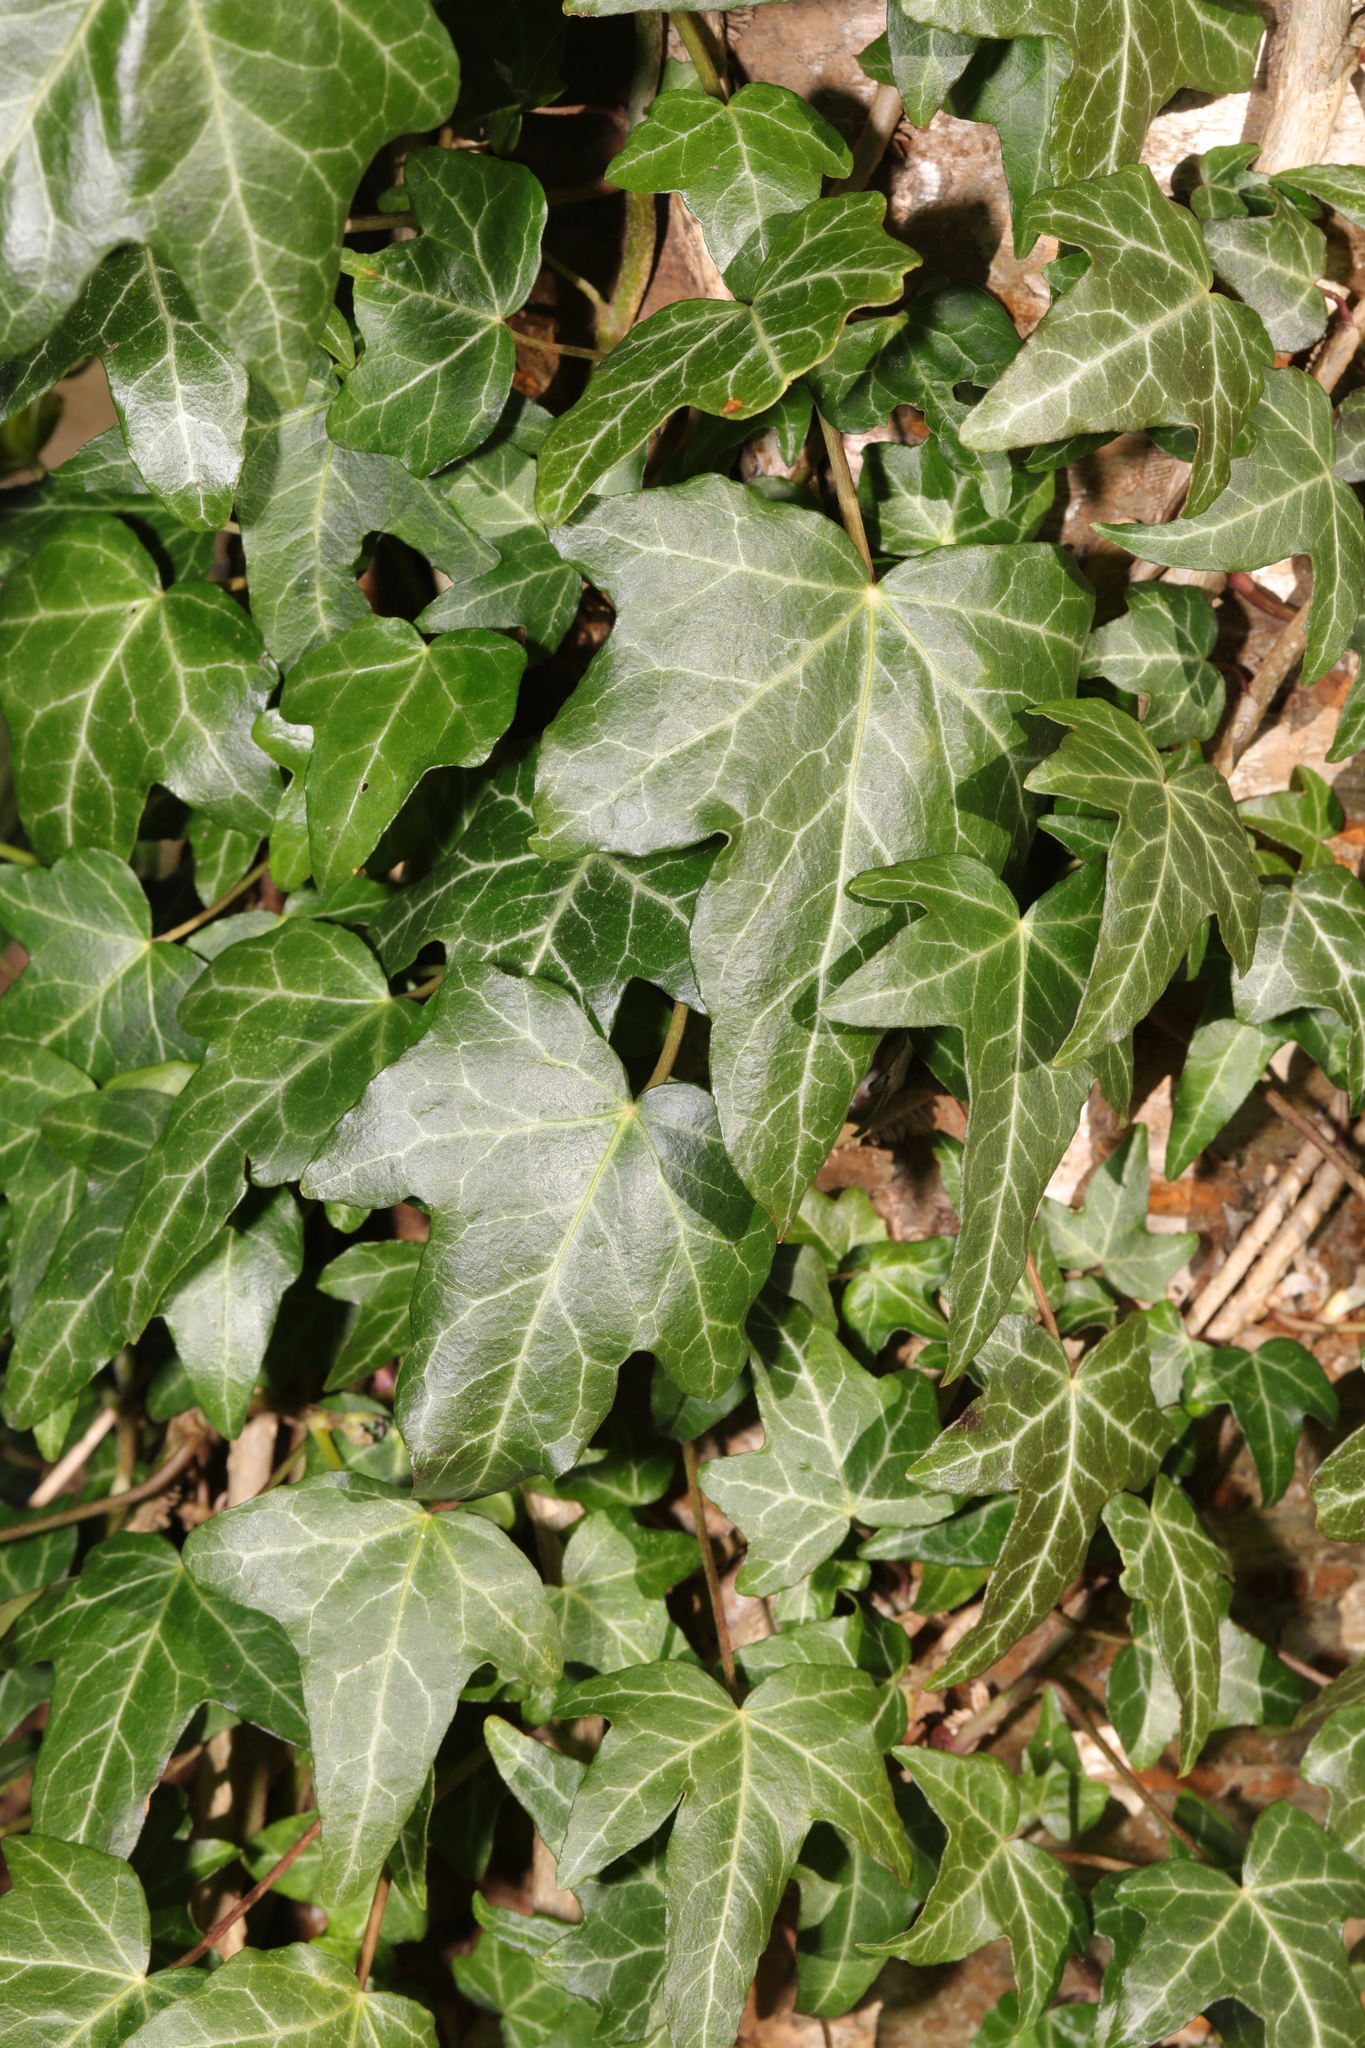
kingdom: Plantae
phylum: Tracheophyta
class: Magnoliopsida
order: Apiales
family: Araliaceae
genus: Hedera
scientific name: Hedera helix
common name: Ivy
